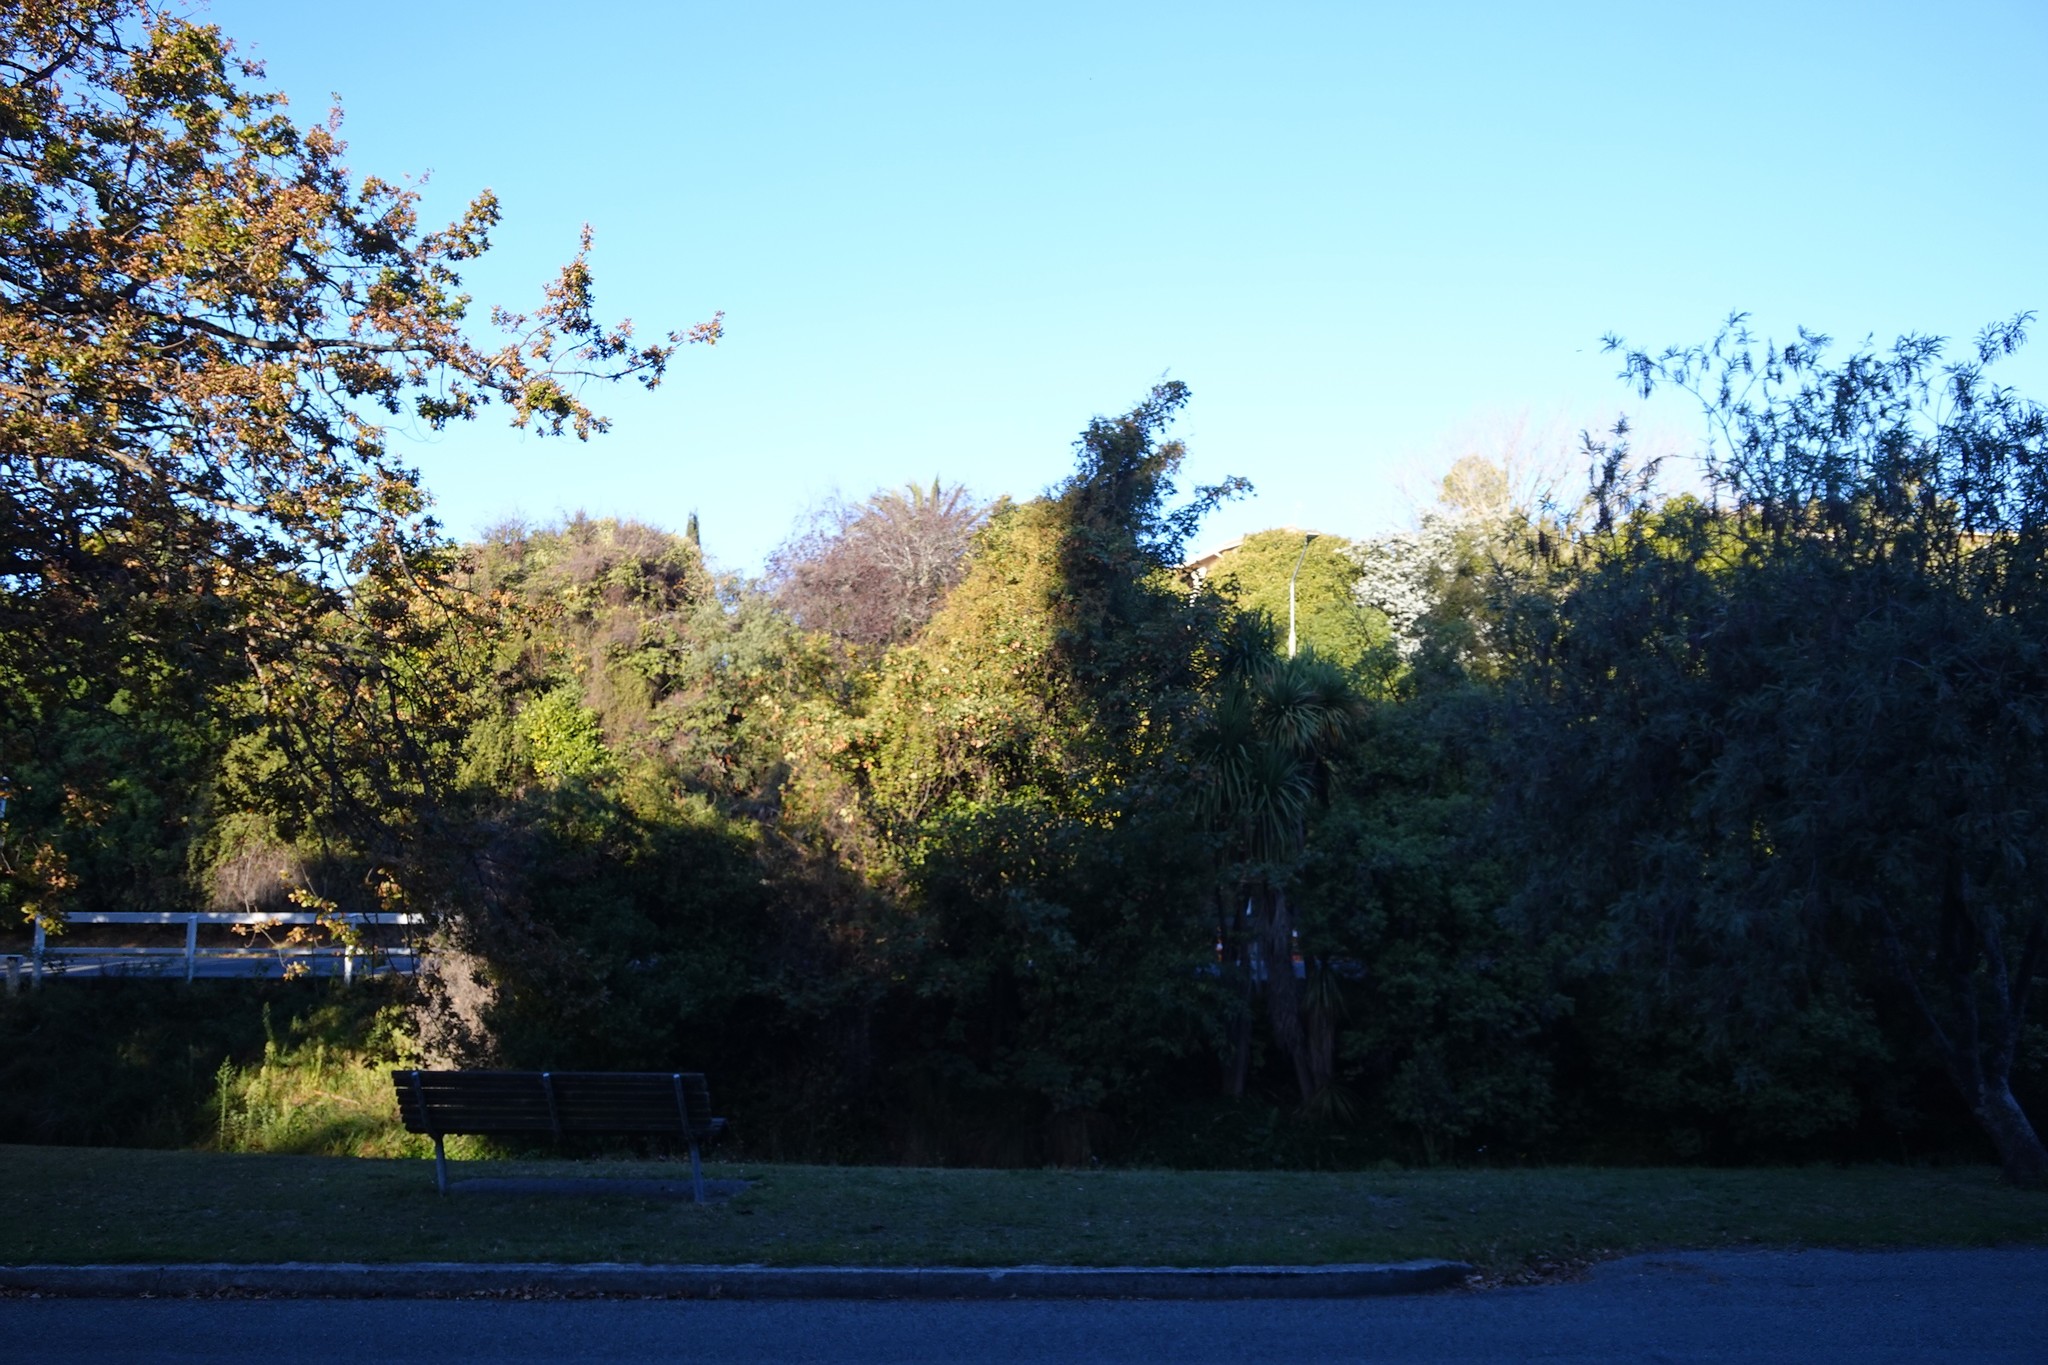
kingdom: Plantae
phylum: Tracheophyta
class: Magnoliopsida
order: Caryophyllales
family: Polygonaceae
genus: Muehlenbeckia
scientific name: Muehlenbeckia australis
